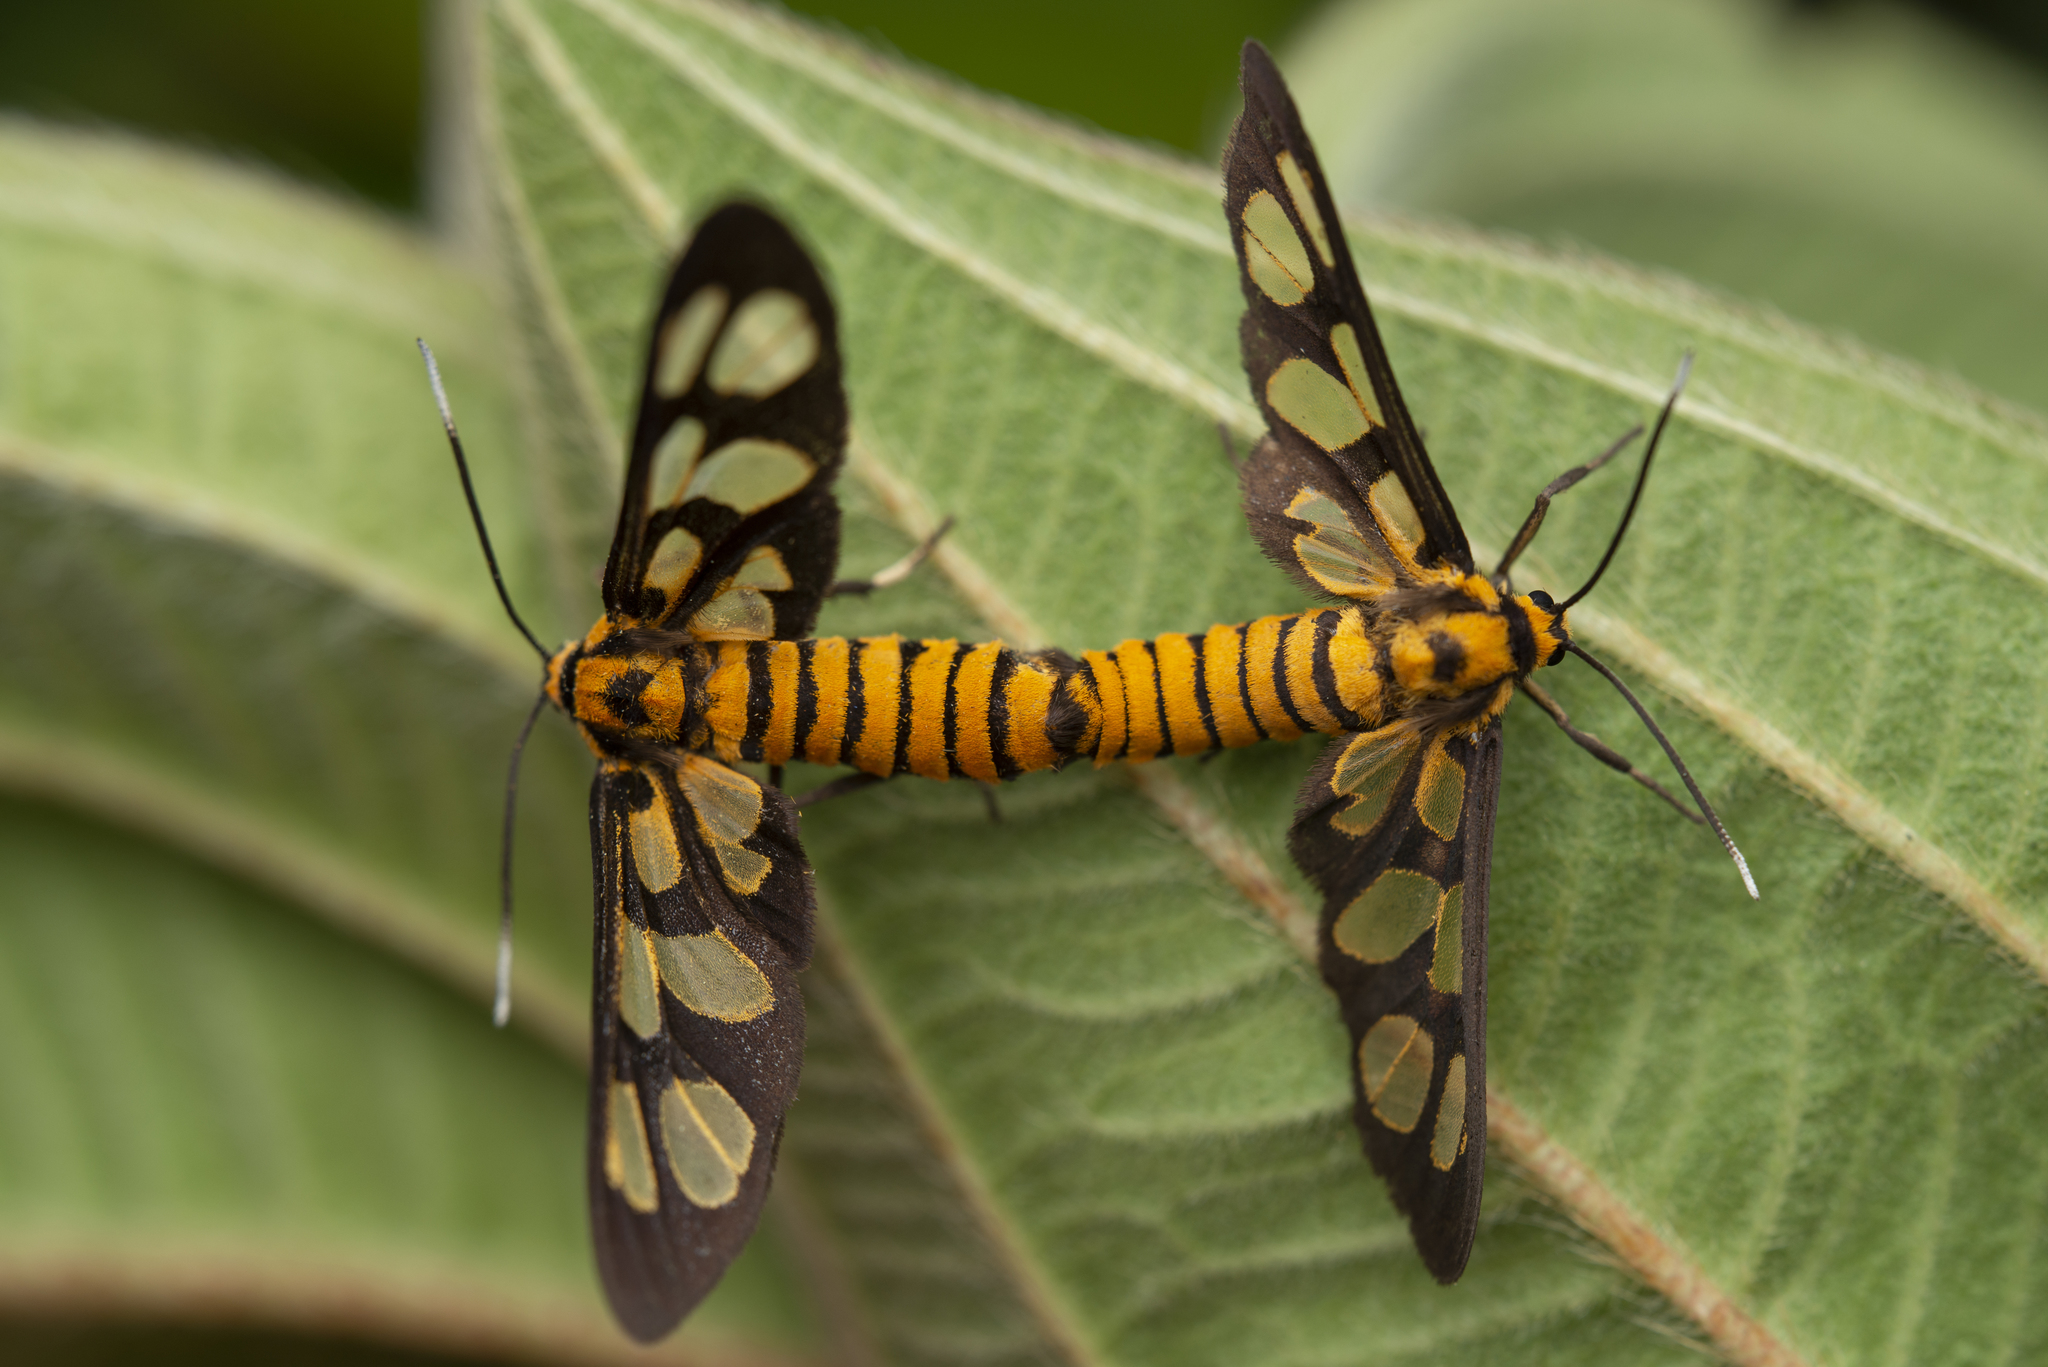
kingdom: Animalia
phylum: Arthropoda
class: Insecta
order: Lepidoptera
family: Erebidae
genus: Amata
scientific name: Amata germana
